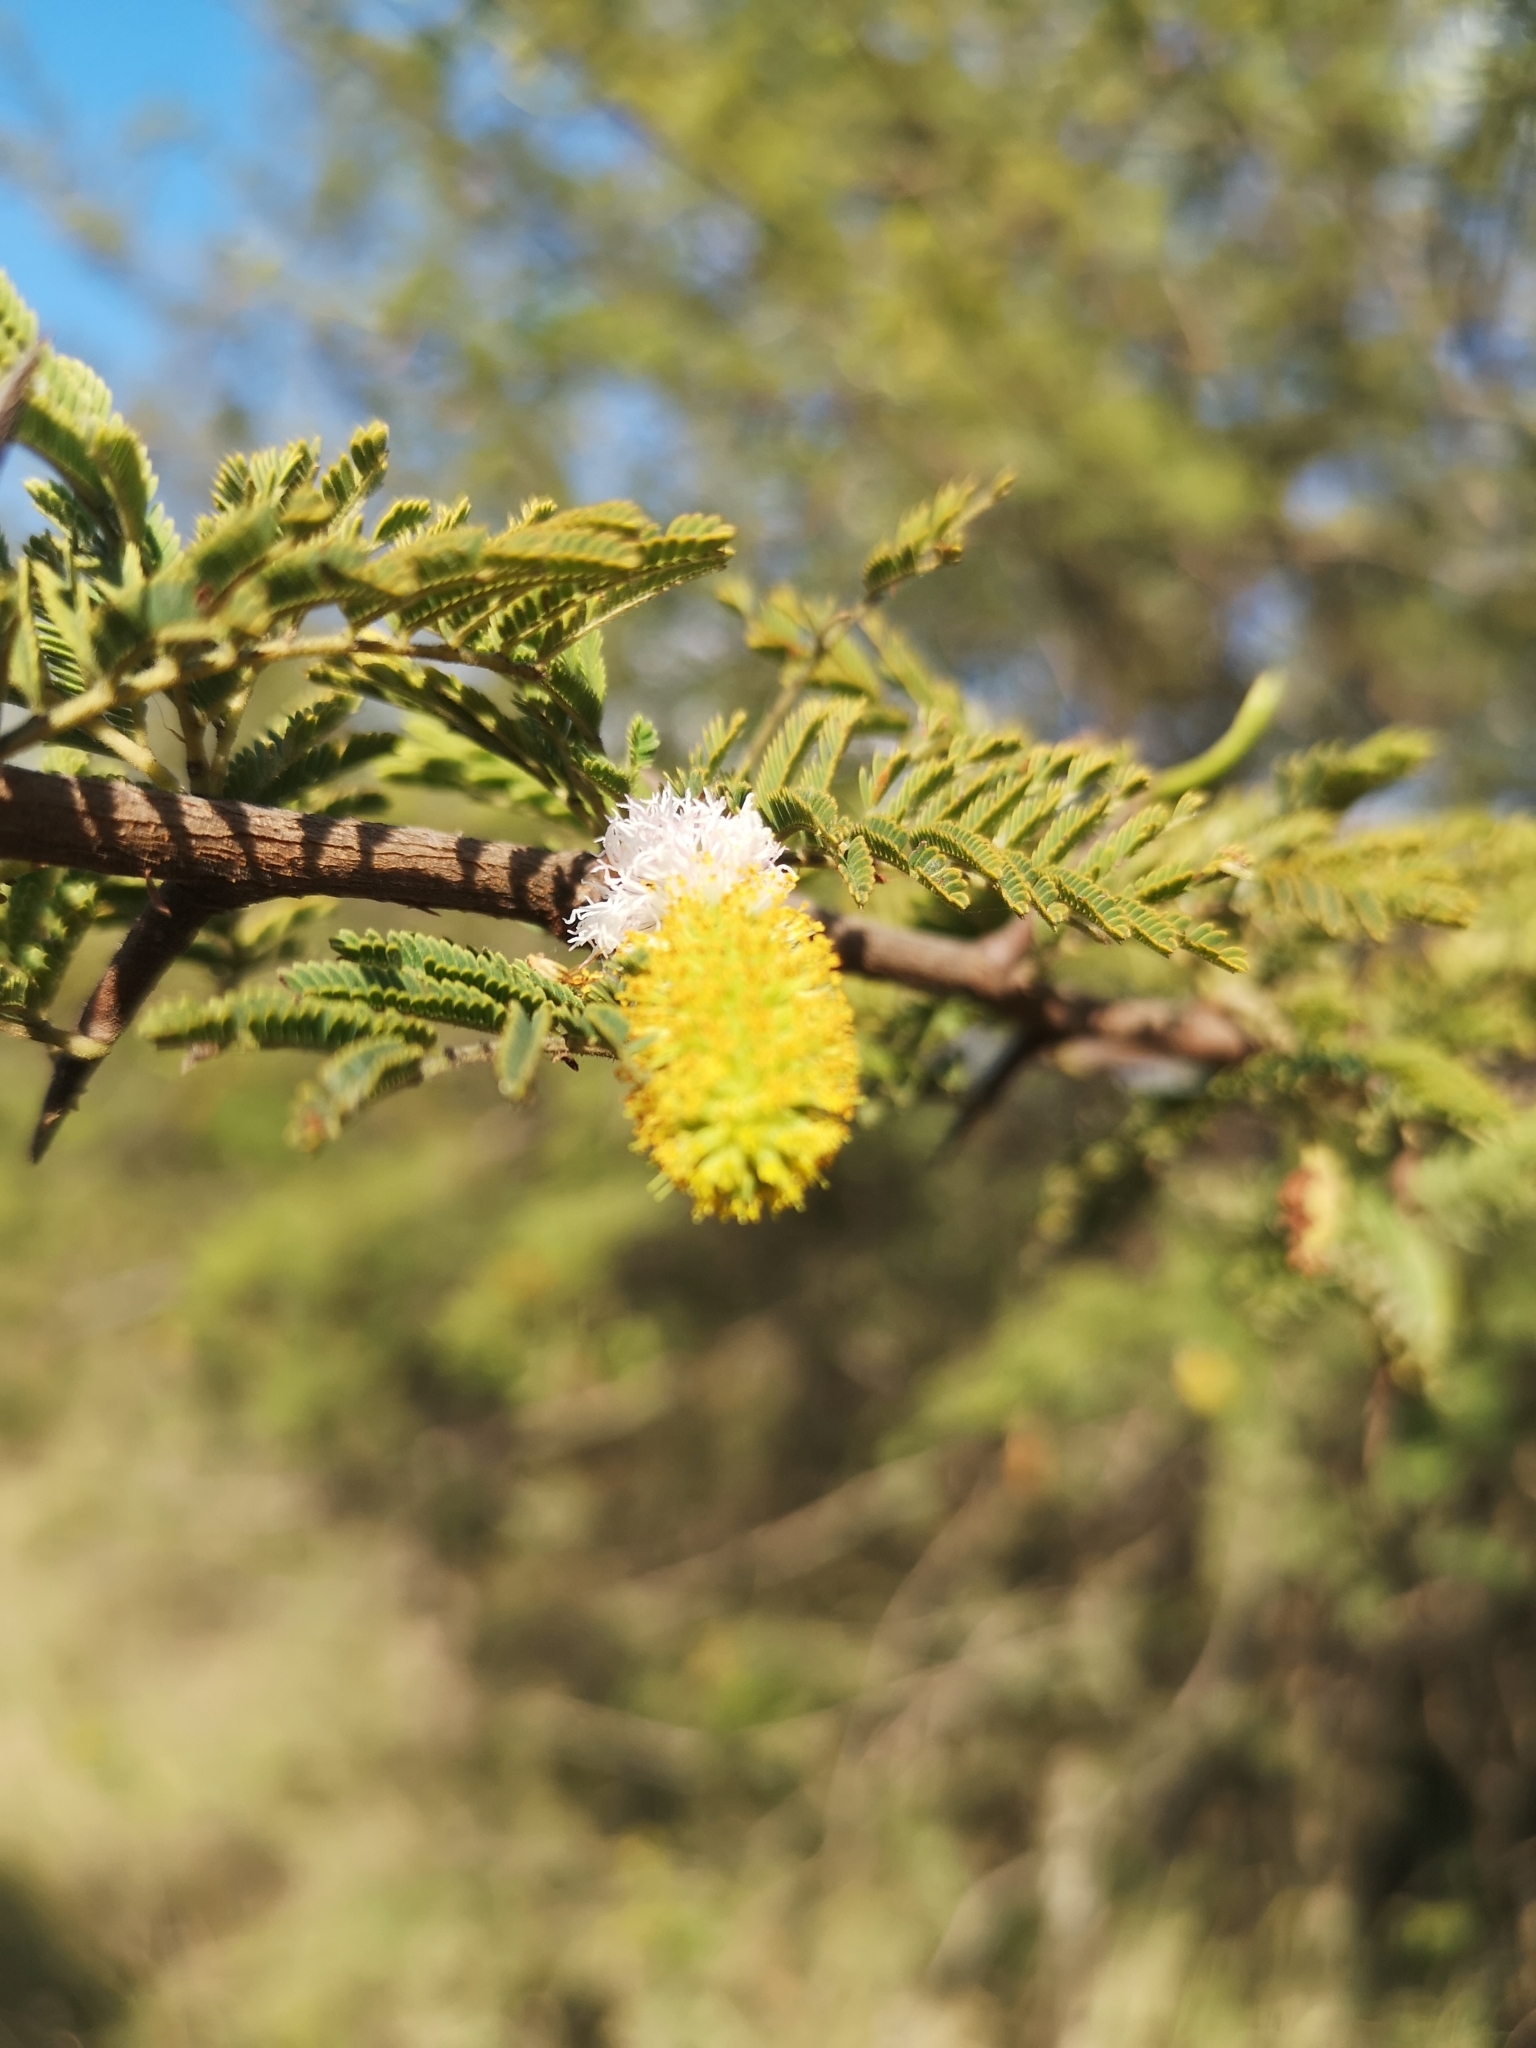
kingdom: Plantae
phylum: Tracheophyta
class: Magnoliopsida
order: Fabales
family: Fabaceae
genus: Dichrostachys
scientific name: Dichrostachys cinerea
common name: Sicklebush
